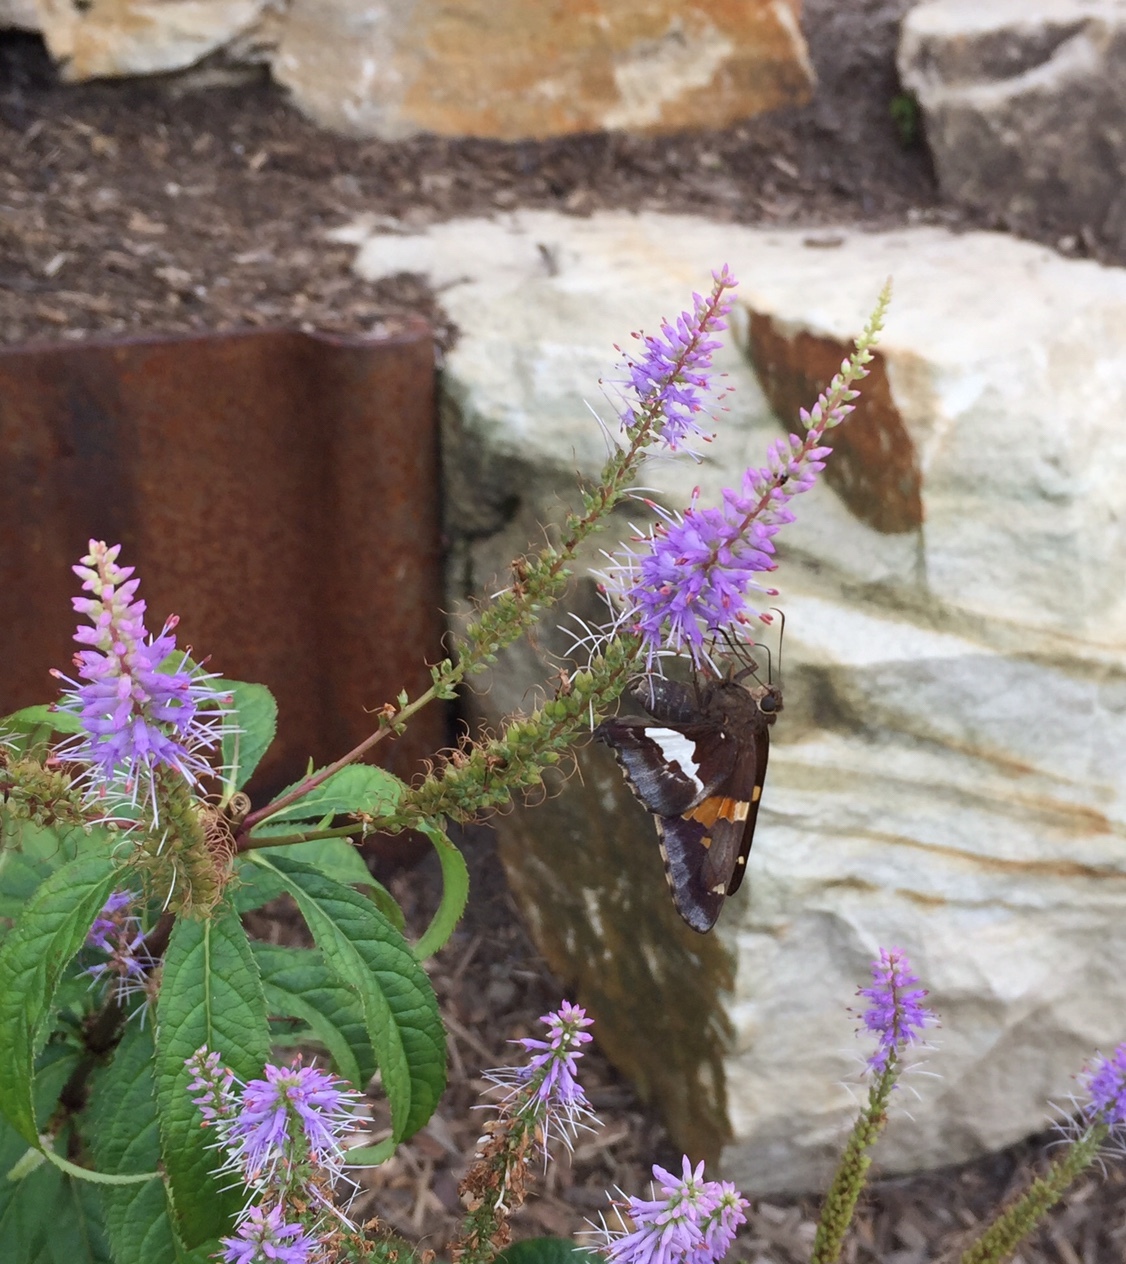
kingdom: Animalia
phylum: Arthropoda
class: Insecta
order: Lepidoptera
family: Hesperiidae
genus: Epargyreus
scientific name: Epargyreus clarus
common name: Silver-spotted skipper
